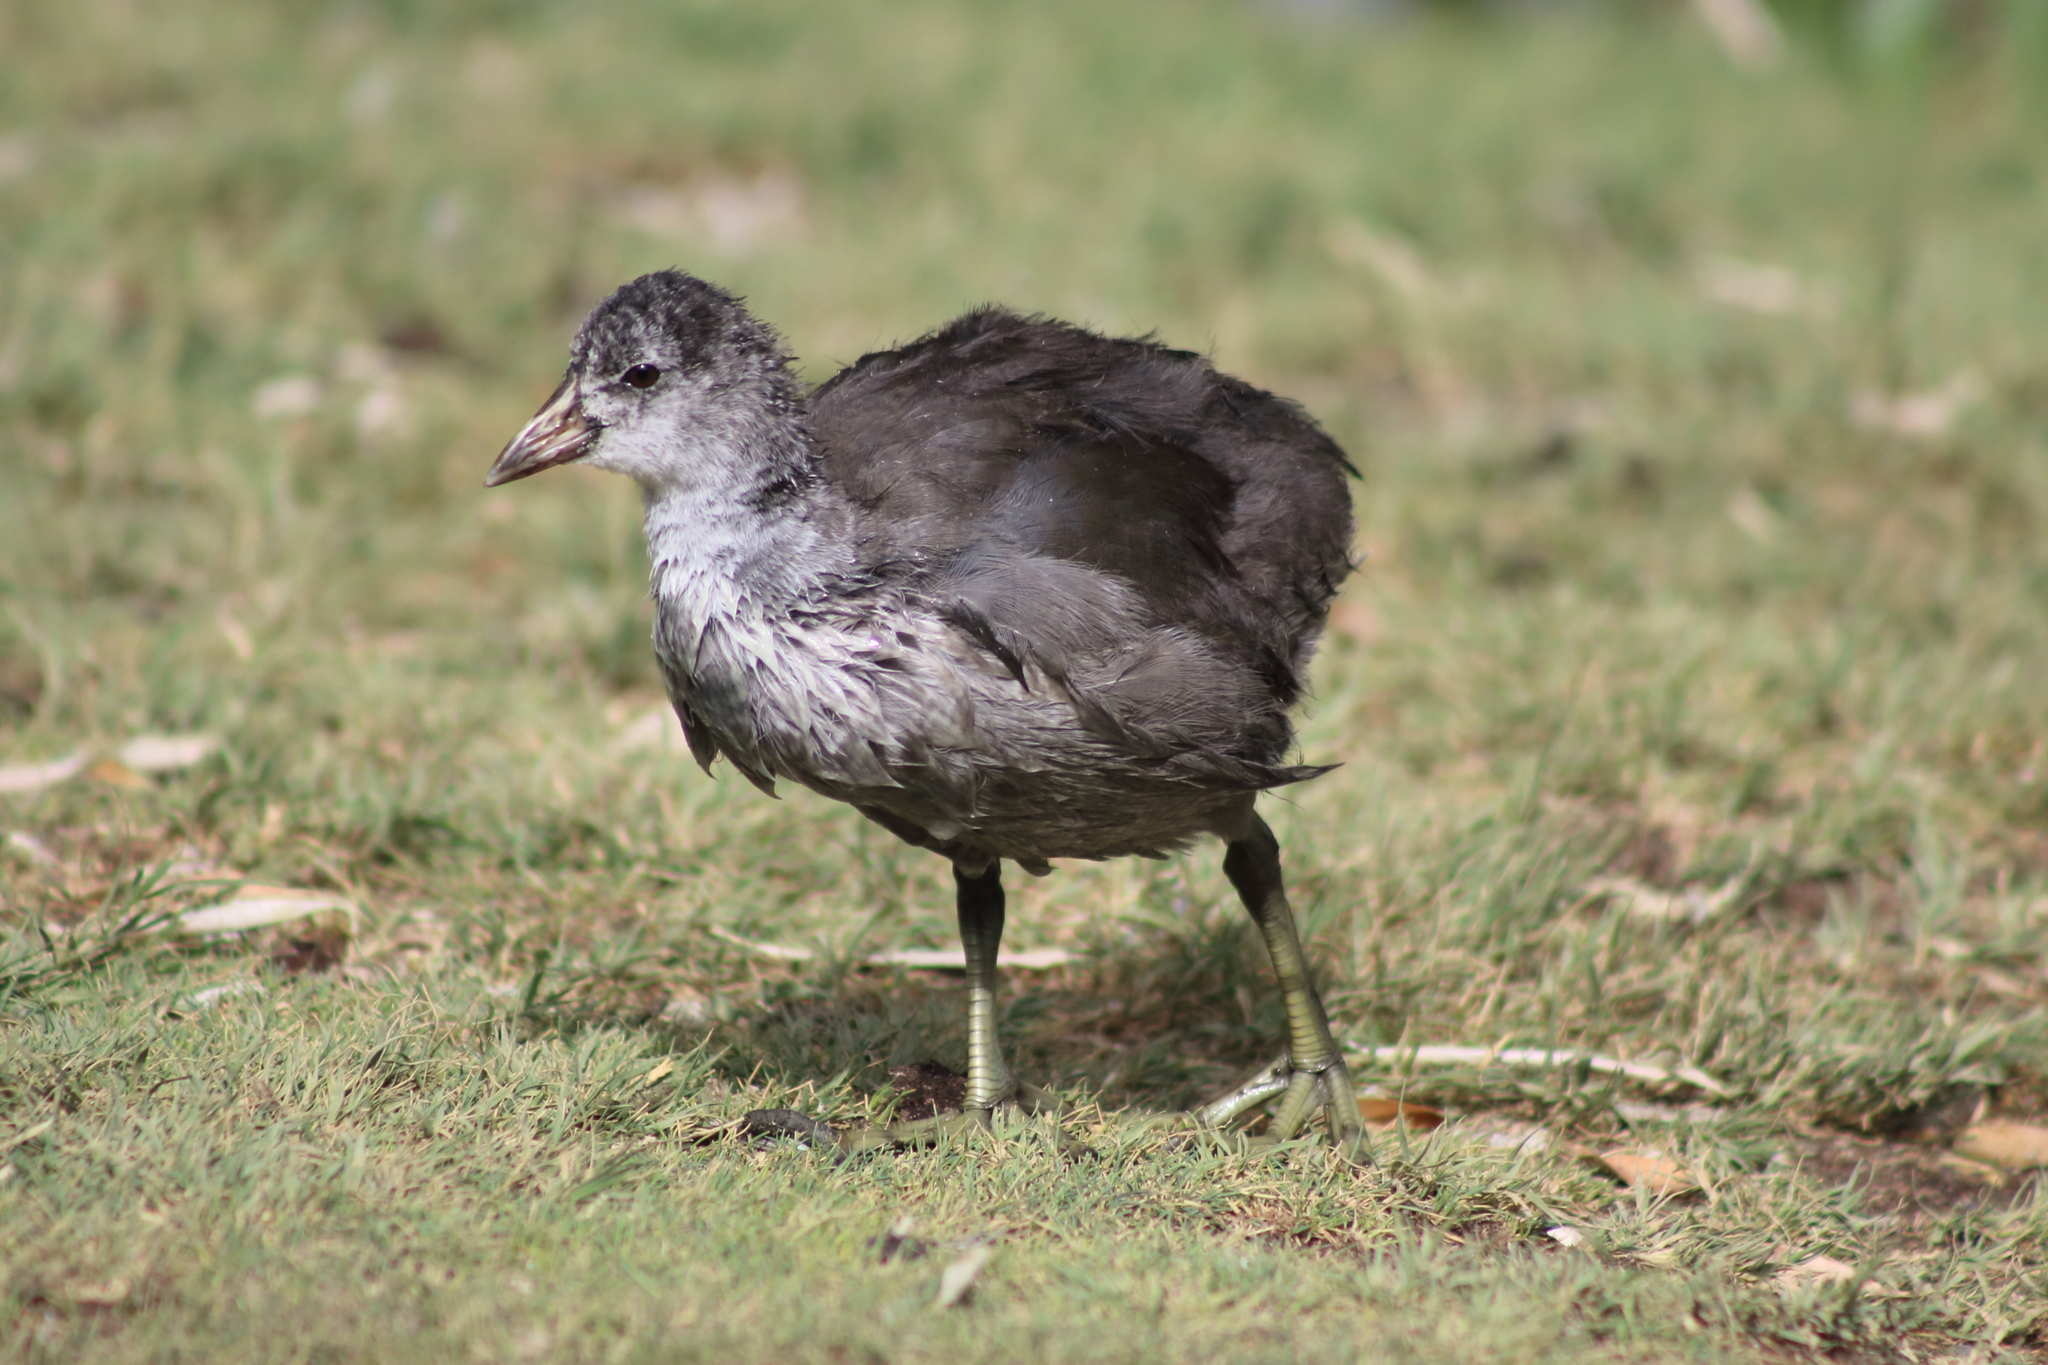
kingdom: Animalia
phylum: Chordata
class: Aves
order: Gruiformes
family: Rallidae
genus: Fulica
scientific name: Fulica americana
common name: American coot
